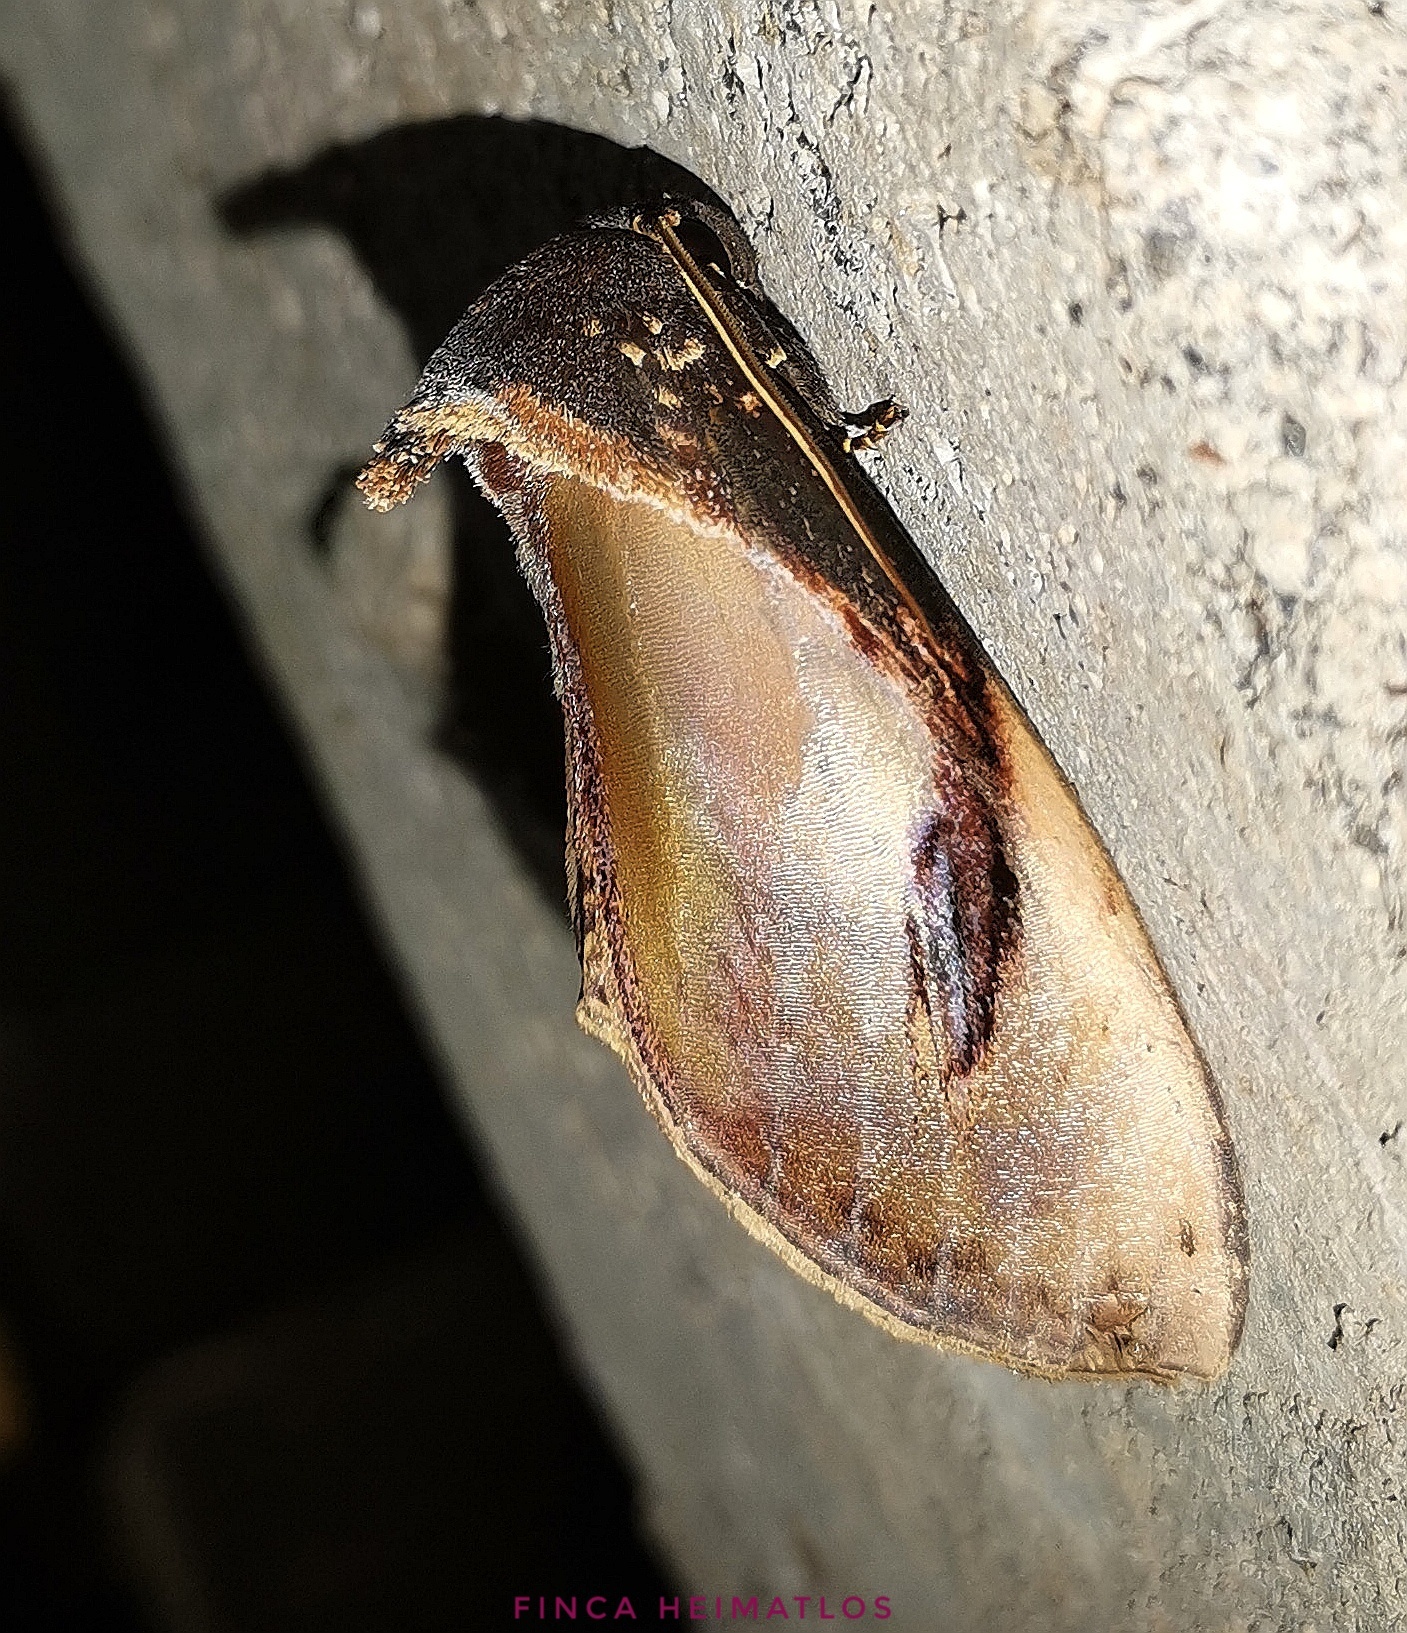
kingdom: Animalia
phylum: Arthropoda
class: Insecta
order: Lepidoptera
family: Notodontidae
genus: Crinodes
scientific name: Crinodes bellatrix
